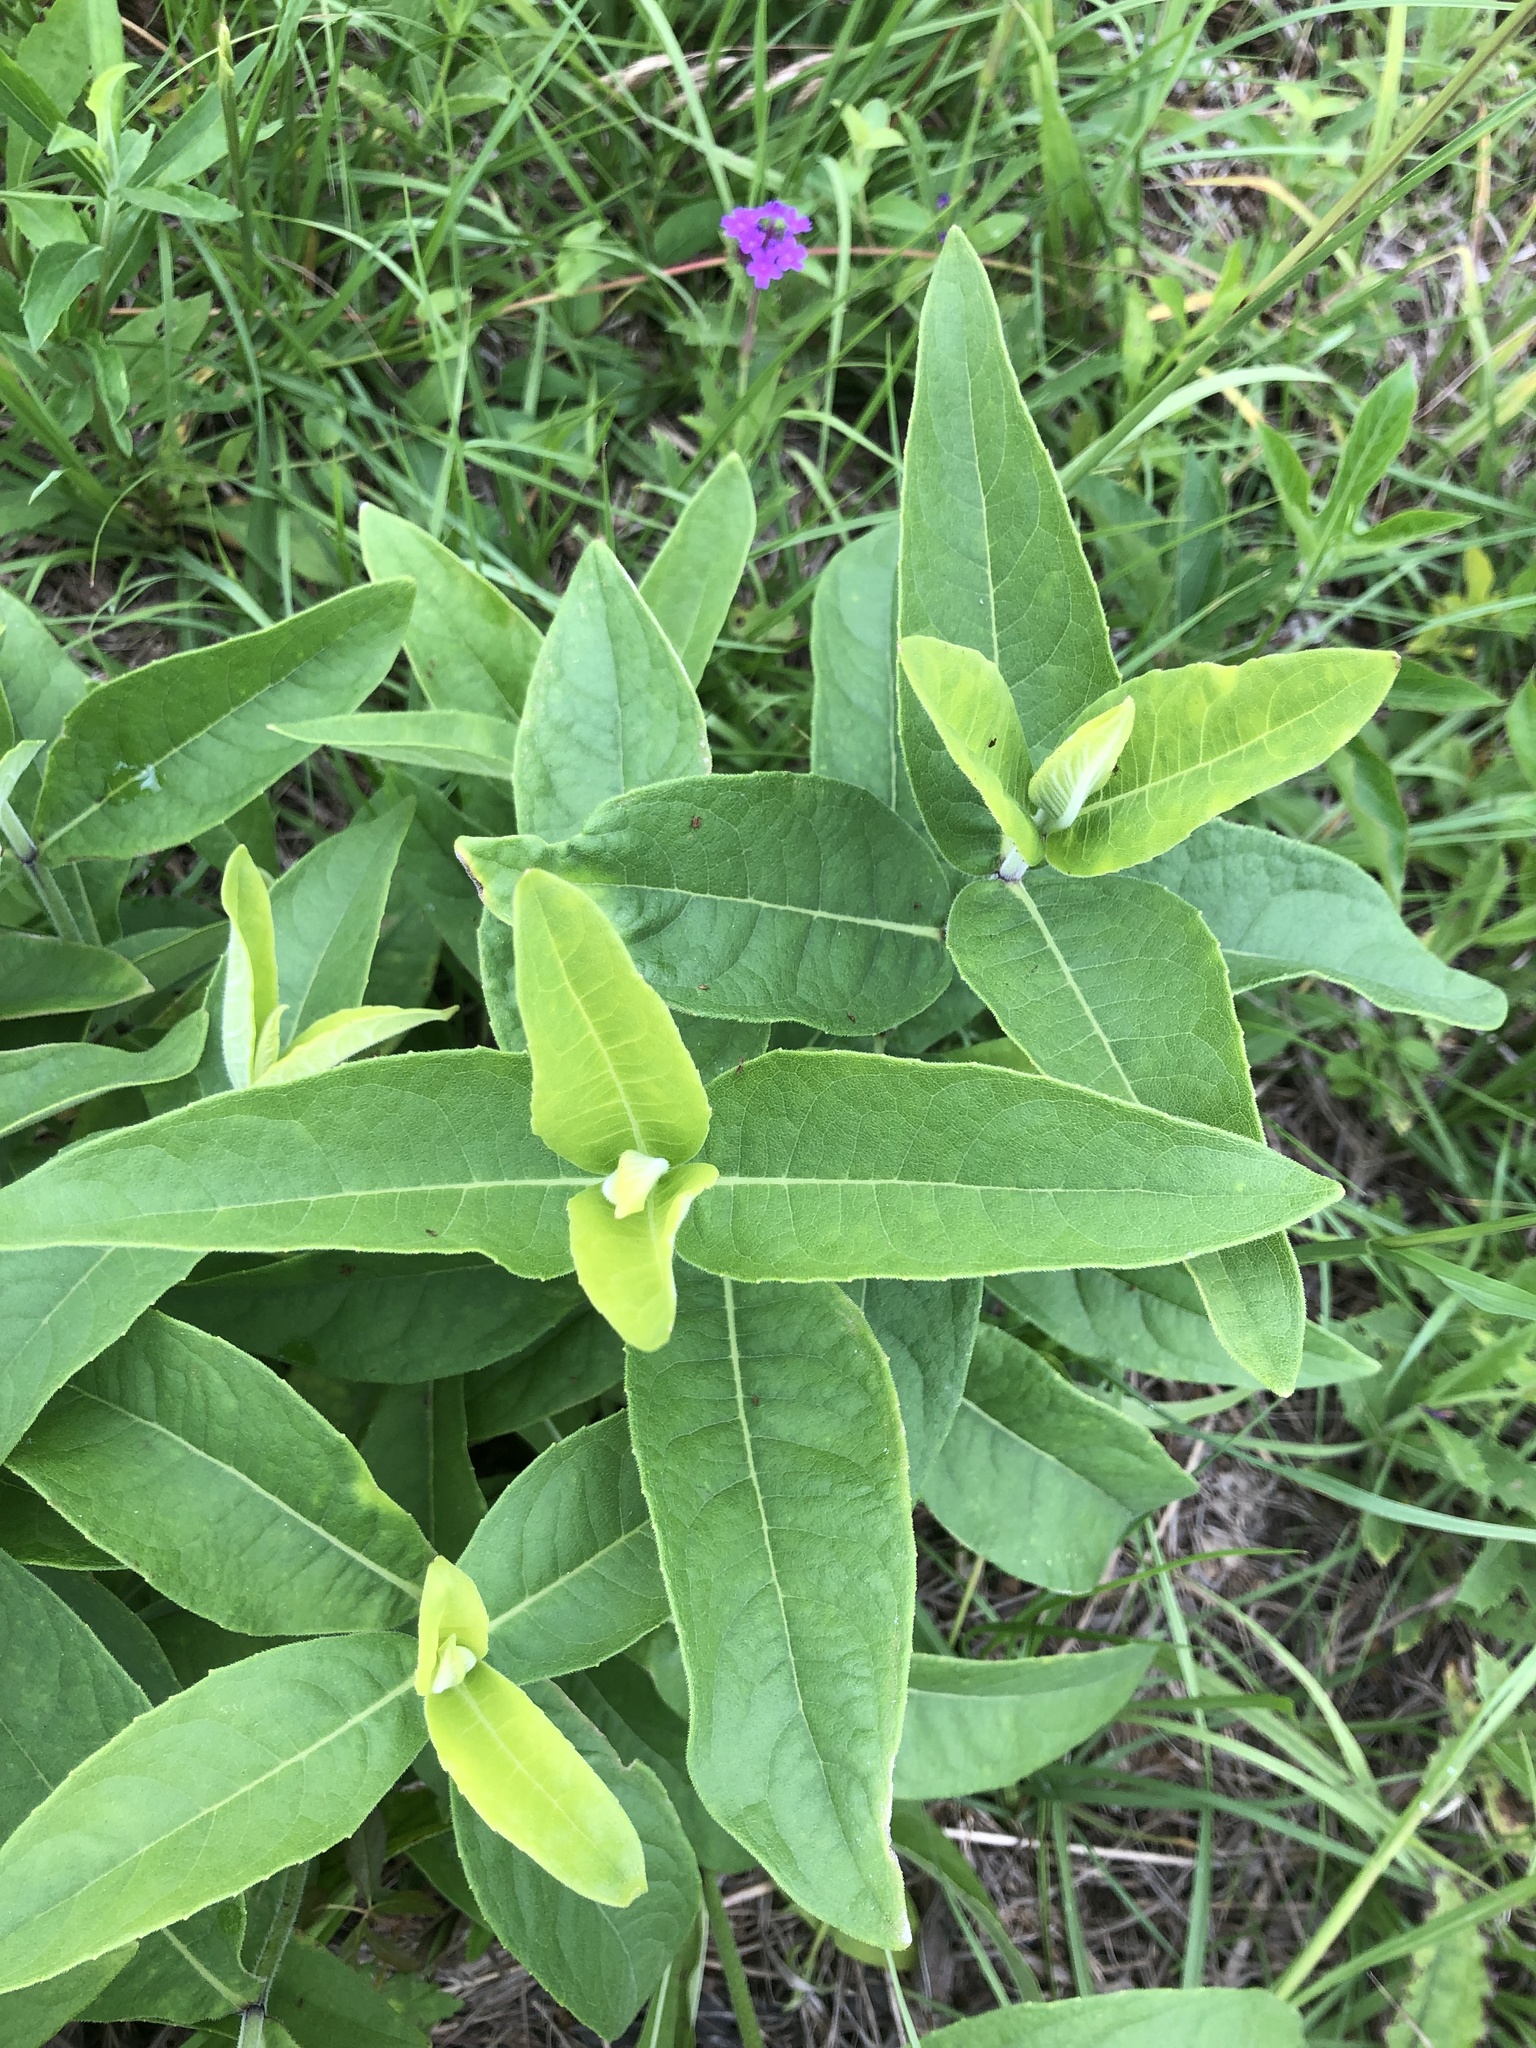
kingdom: Plantae
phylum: Tracheophyta
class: Magnoliopsida
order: Asterales
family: Asteraceae
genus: Silphium
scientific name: Silphium integrifolium
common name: Whole-leaf rosinweed
